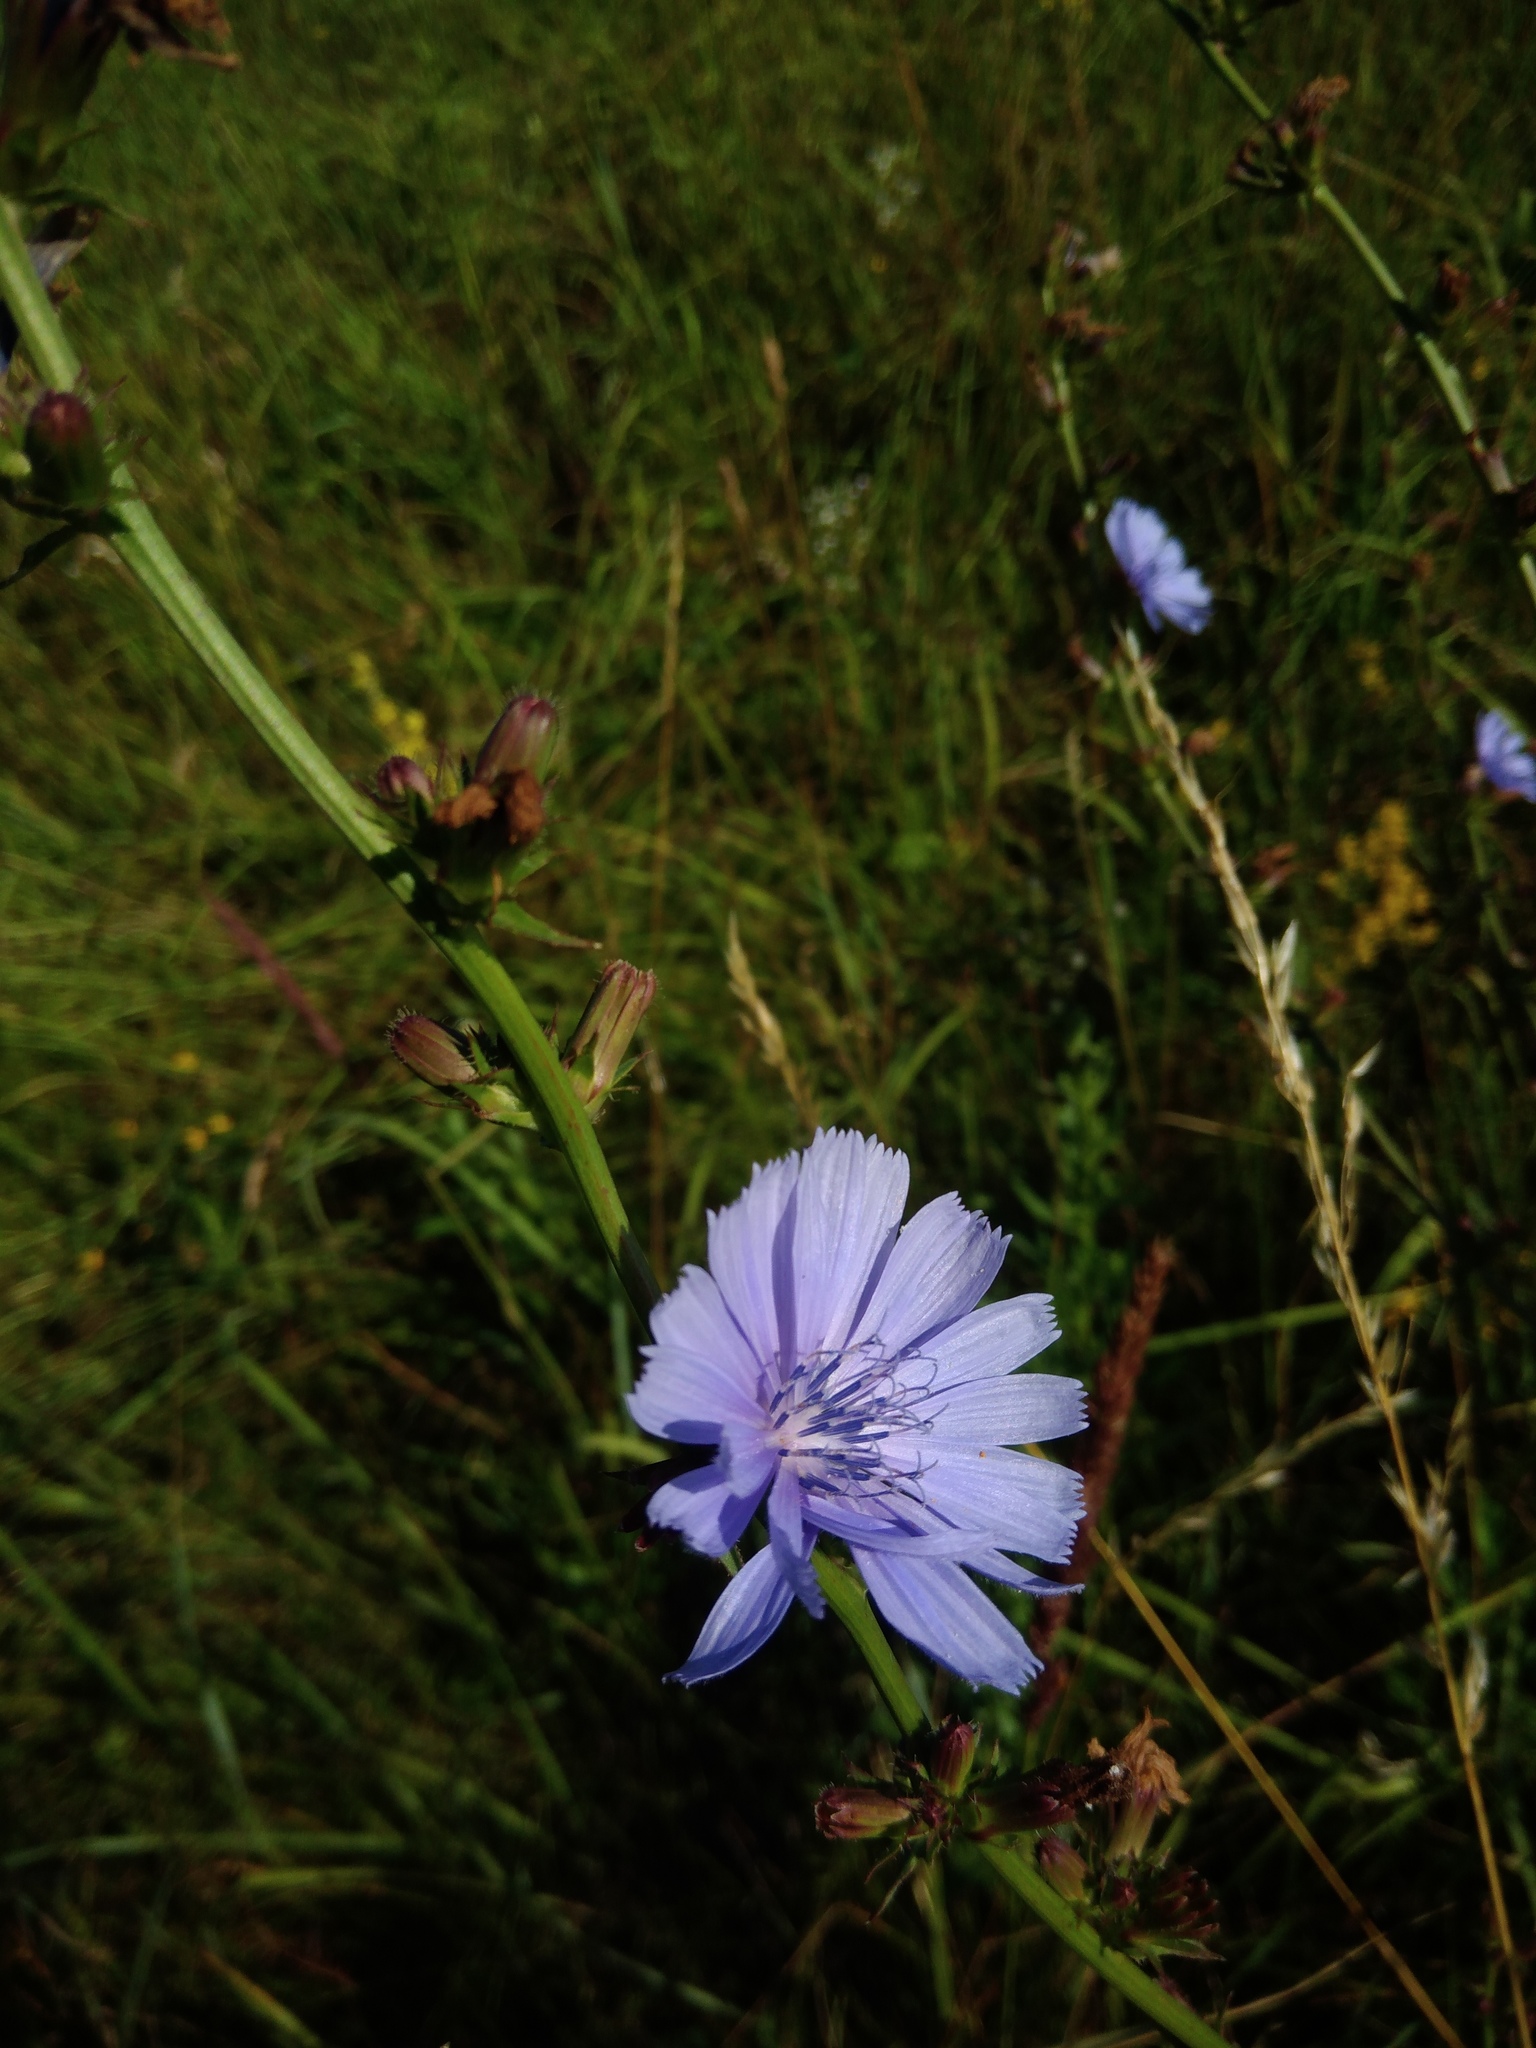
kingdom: Plantae
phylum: Tracheophyta
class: Magnoliopsida
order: Asterales
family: Asteraceae
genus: Cichorium
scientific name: Cichorium intybus
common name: Chicory
